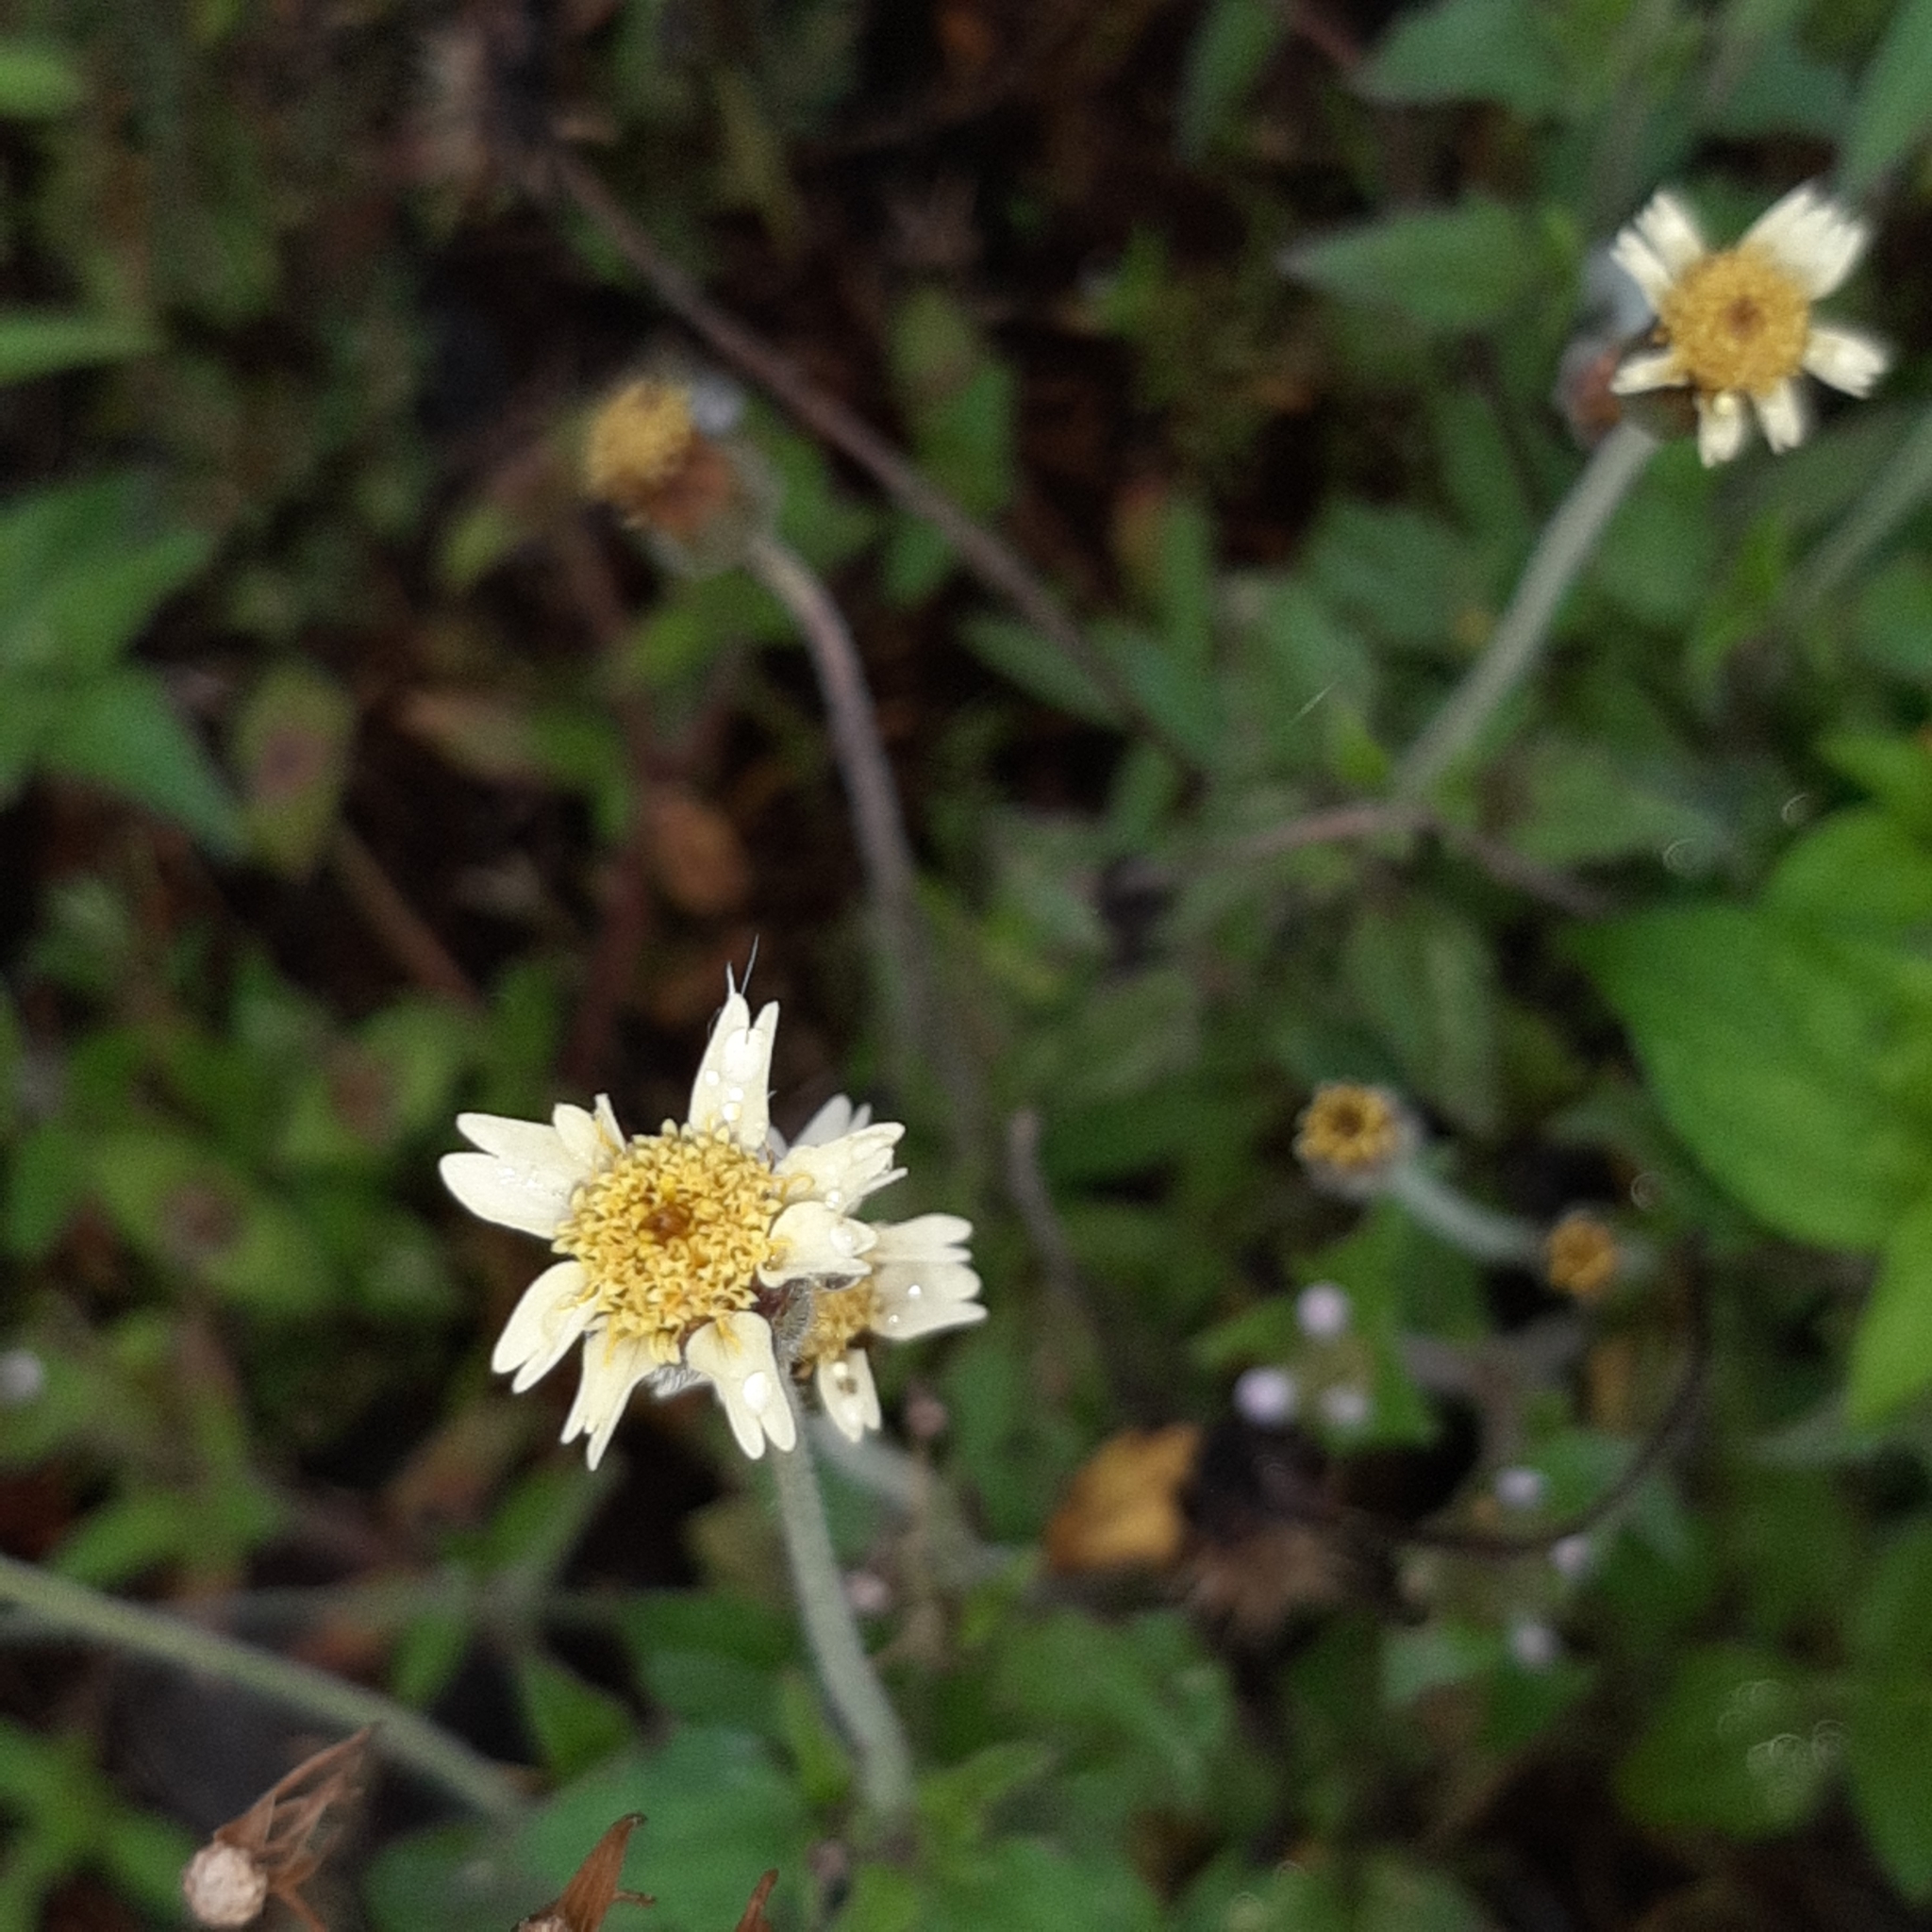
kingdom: Plantae
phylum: Tracheophyta
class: Magnoliopsida
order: Asterales
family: Asteraceae
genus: Tridax
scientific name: Tridax procumbens
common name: Coatbuttons
